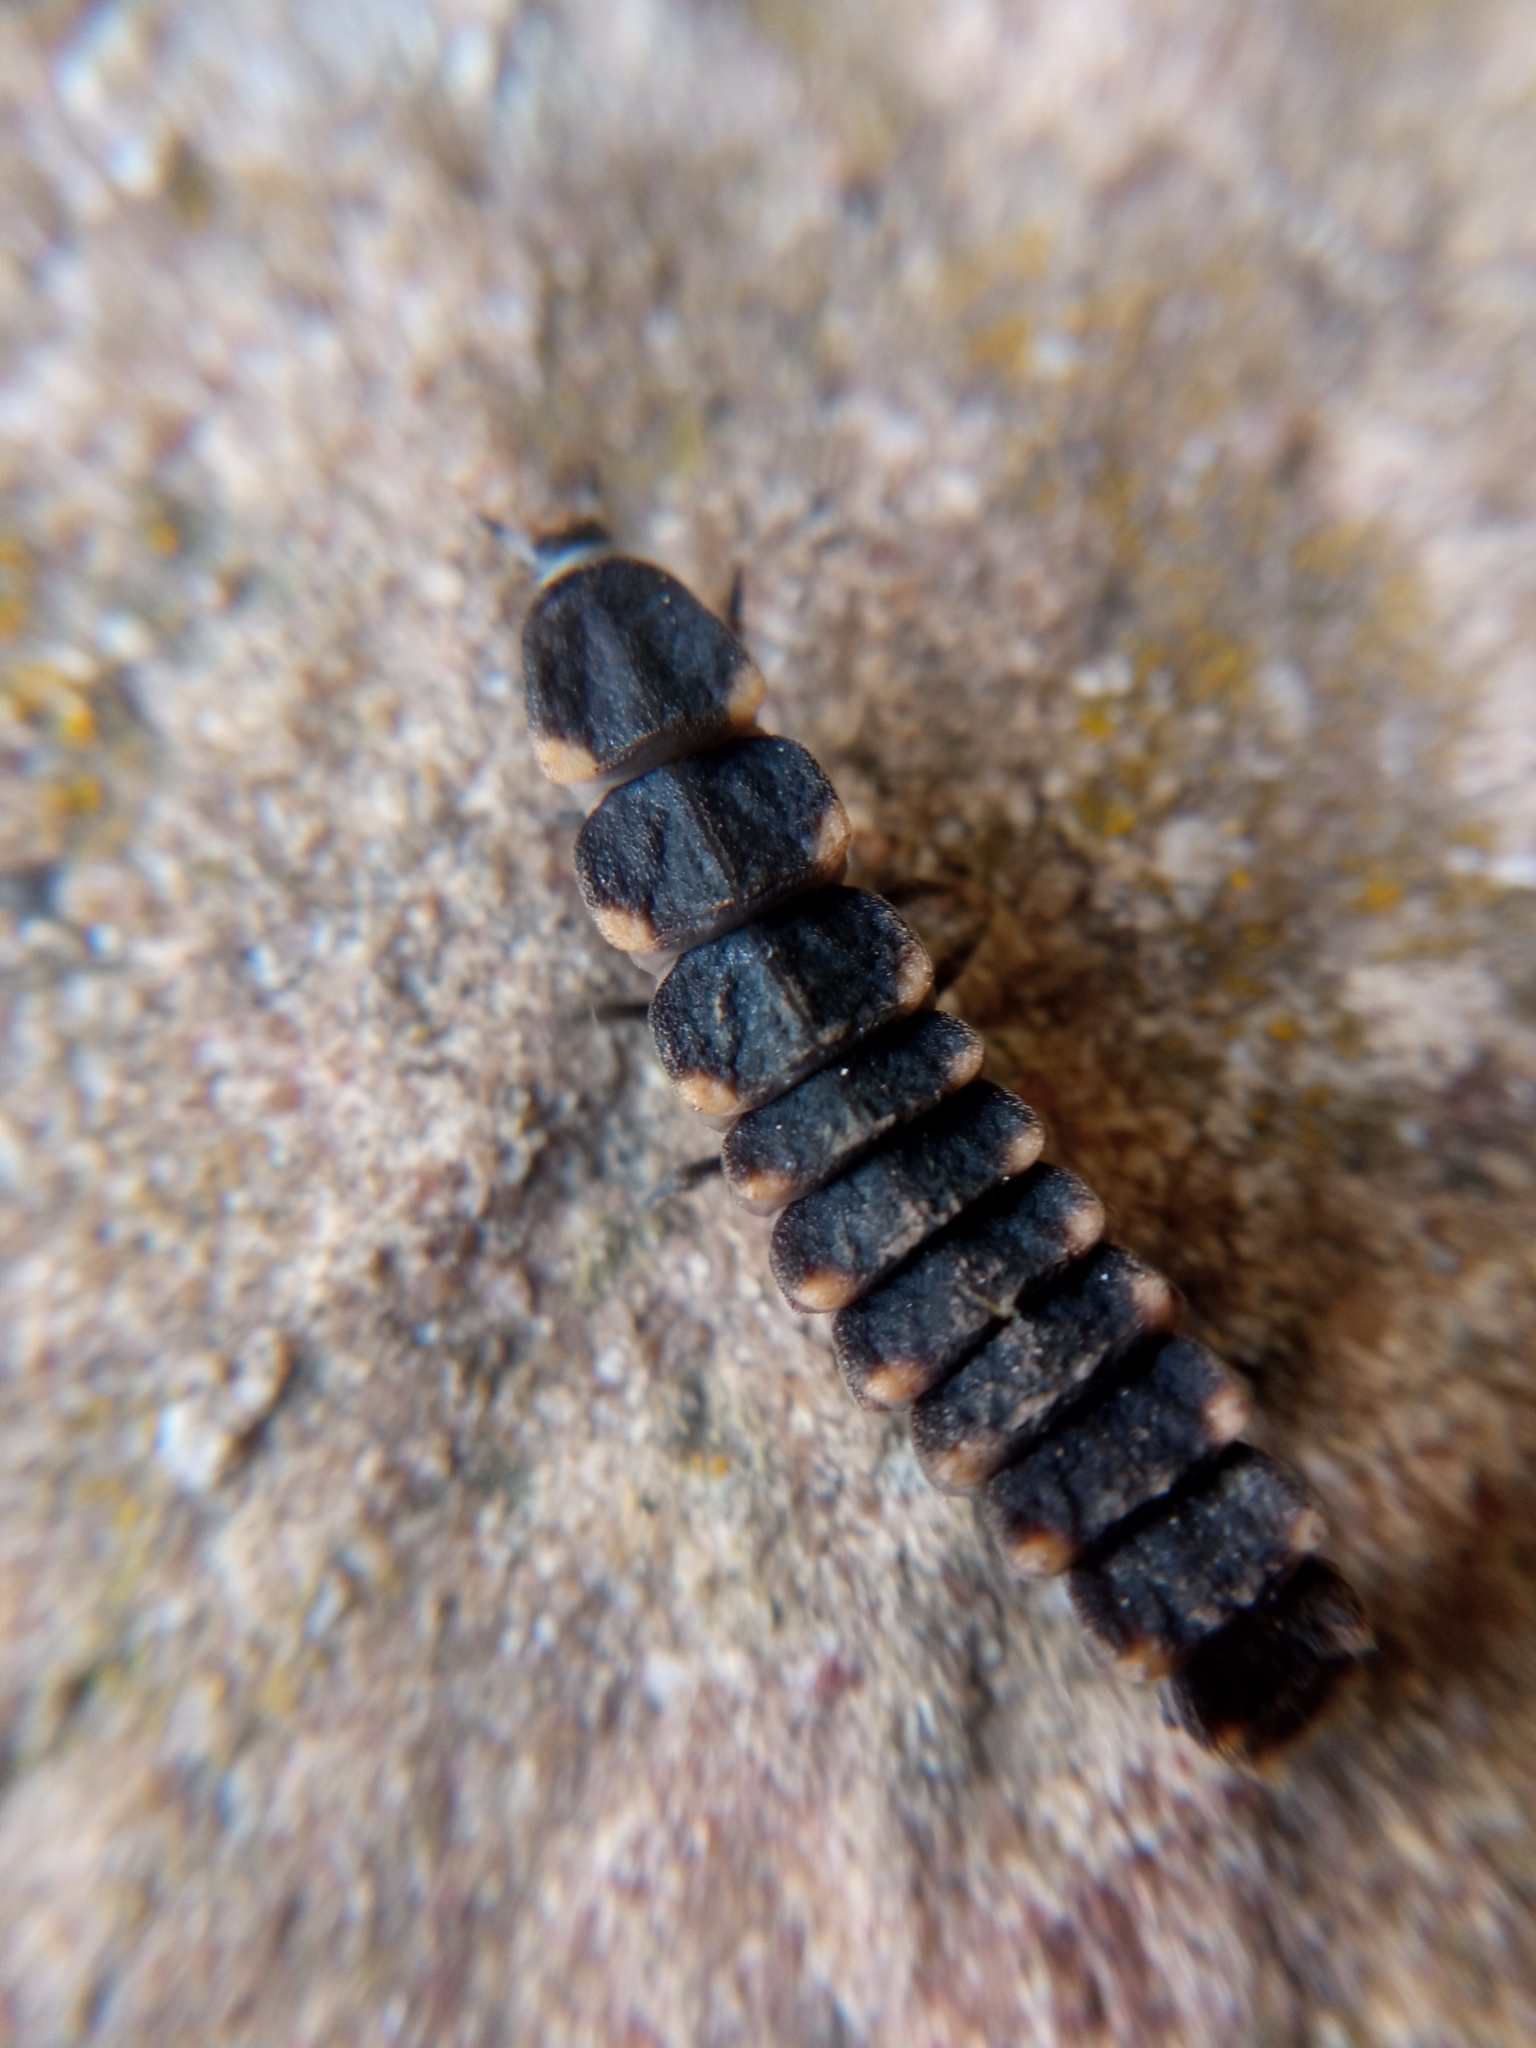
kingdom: Animalia
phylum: Arthropoda
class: Insecta
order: Coleoptera
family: Lampyridae
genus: Lampyris
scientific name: Lampyris noctiluca
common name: Glow-worm
